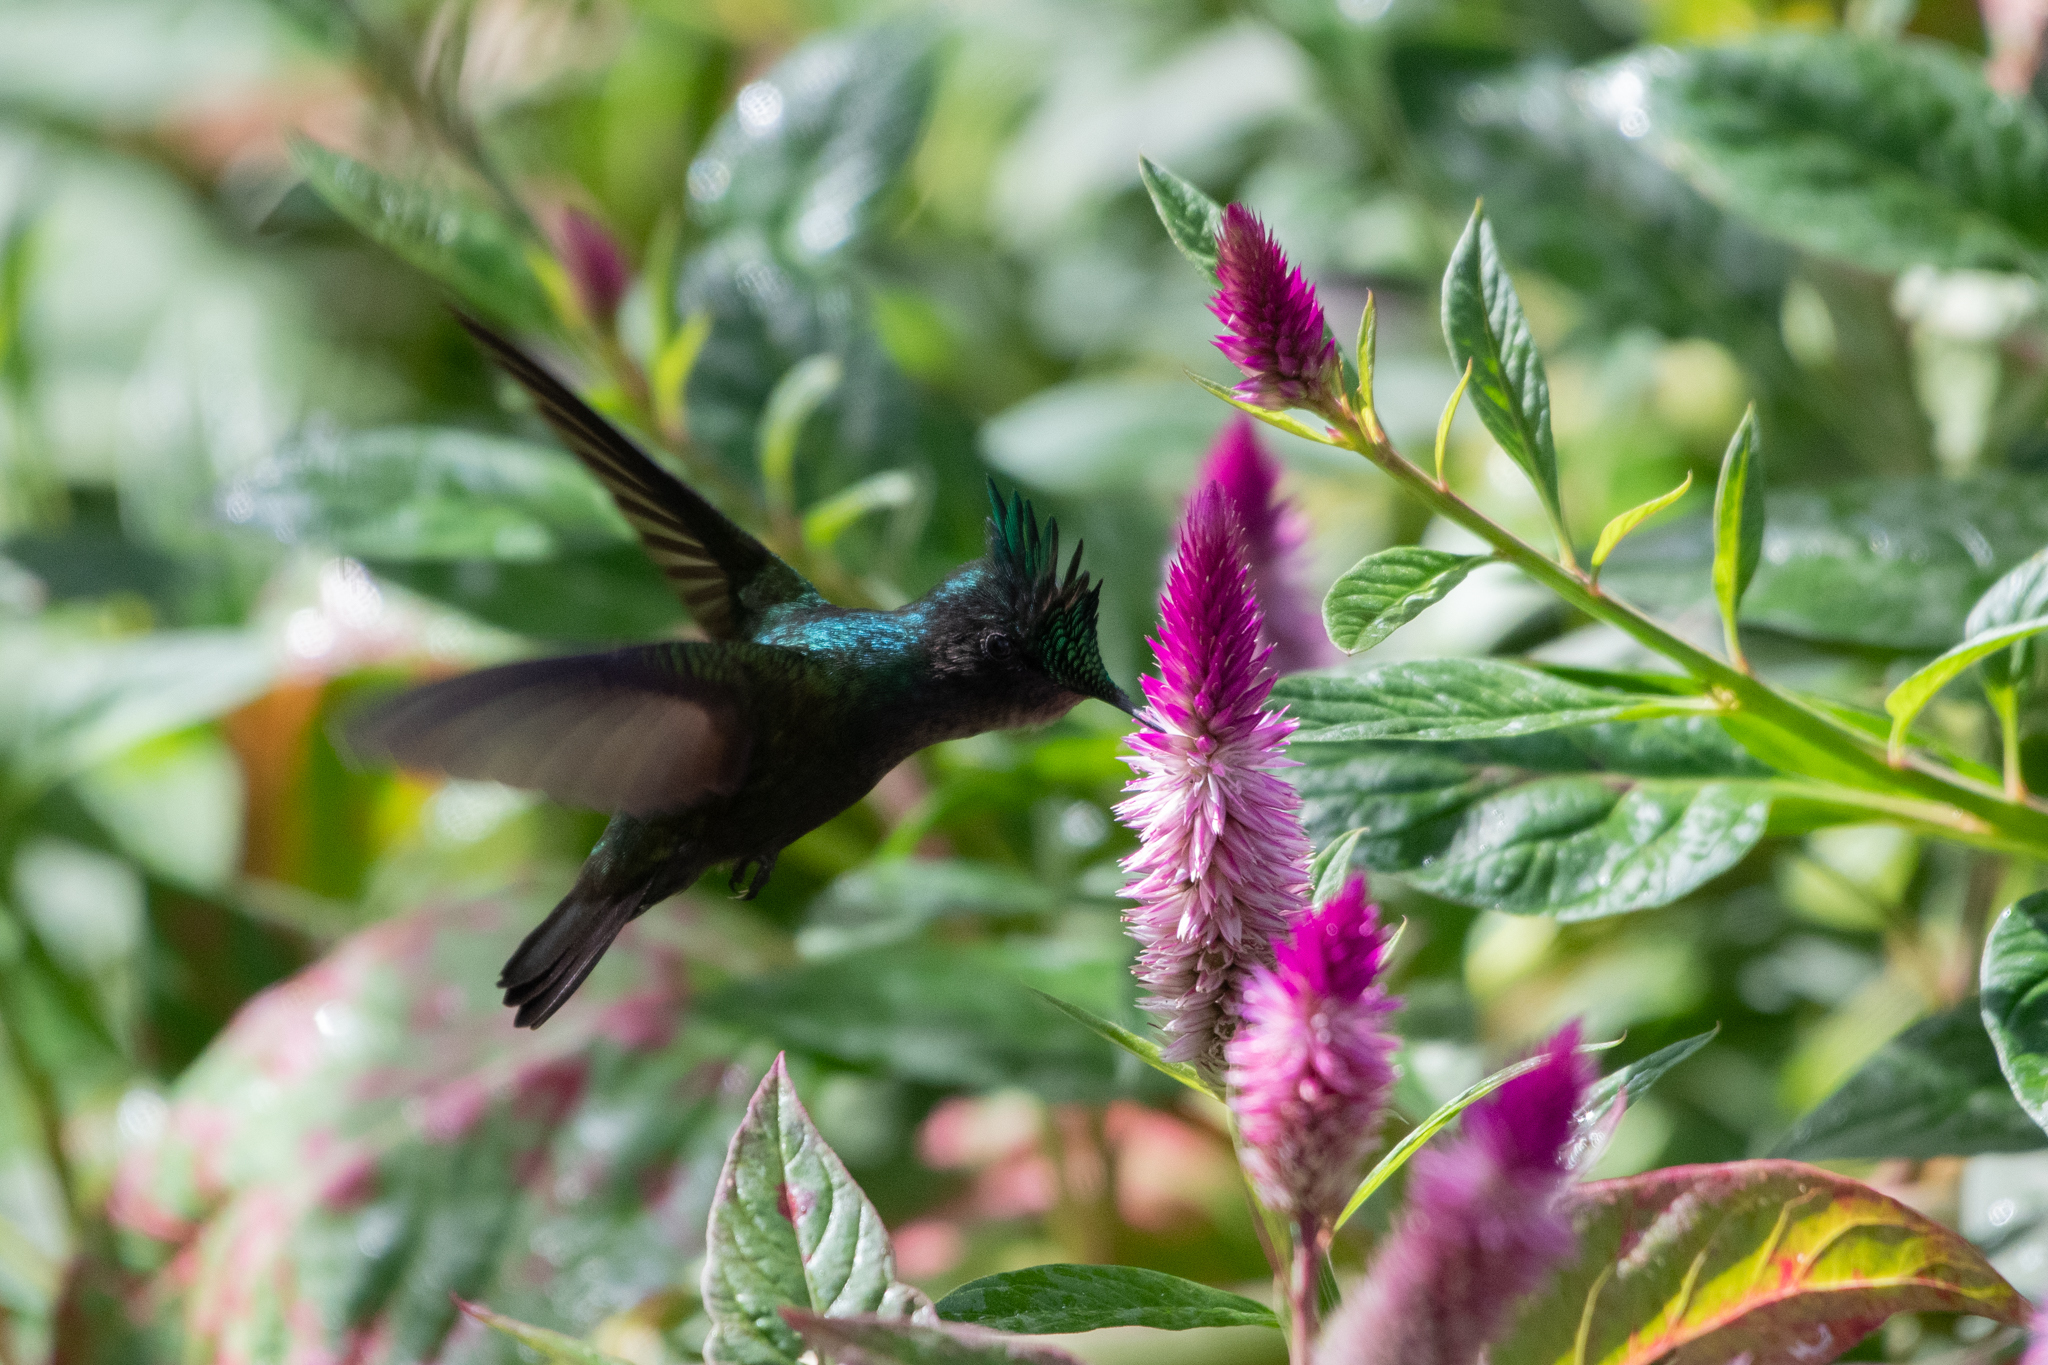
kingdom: Animalia
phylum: Chordata
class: Aves
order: Apodiformes
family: Trochilidae
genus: Orthorhyncus
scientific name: Orthorhyncus cristatus
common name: Antillean crested hummingbird
